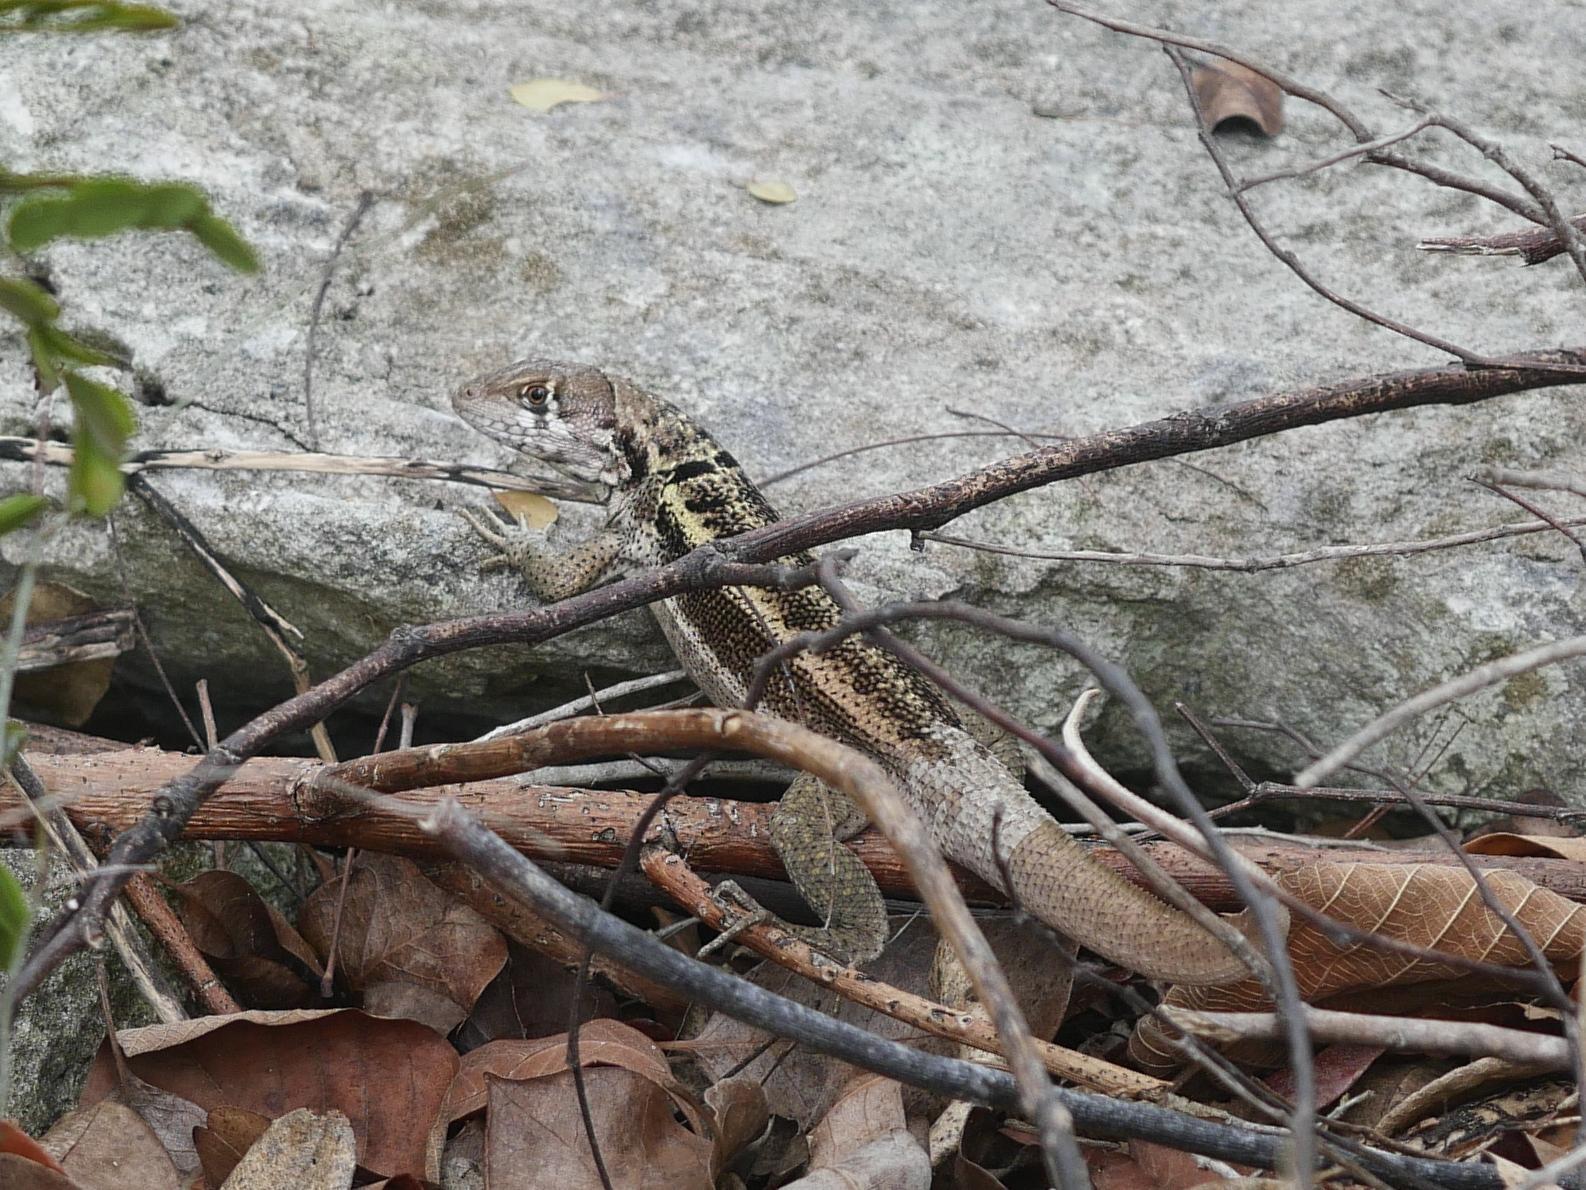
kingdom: Animalia
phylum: Chordata
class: Squamata
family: Leiocephalidae
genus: Leiocephalus
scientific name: Leiocephalus psammodromus
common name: Bastion cay curlytail lizard
